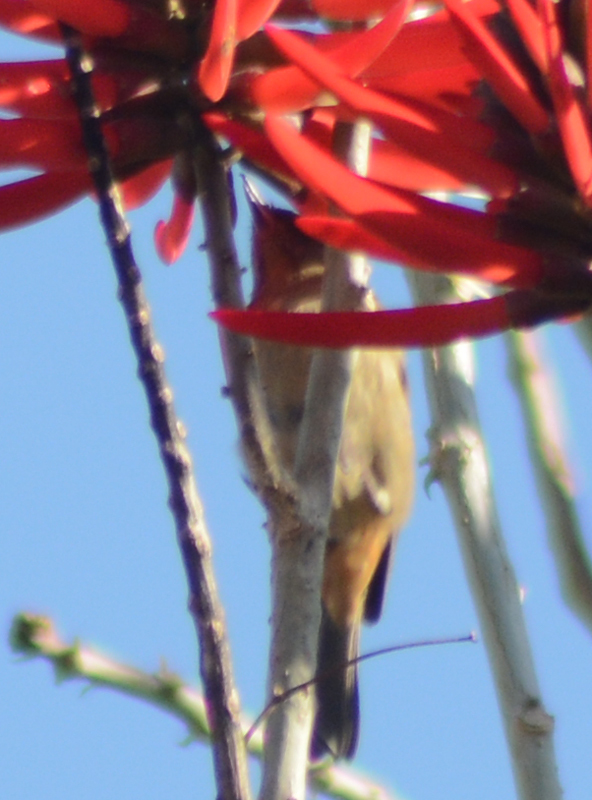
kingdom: Animalia
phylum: Chordata
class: Aves
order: Passeriformes
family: Thraupidae
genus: Diglossa
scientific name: Diglossa baritula
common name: Cinnamon-bellied flowerpiercer
